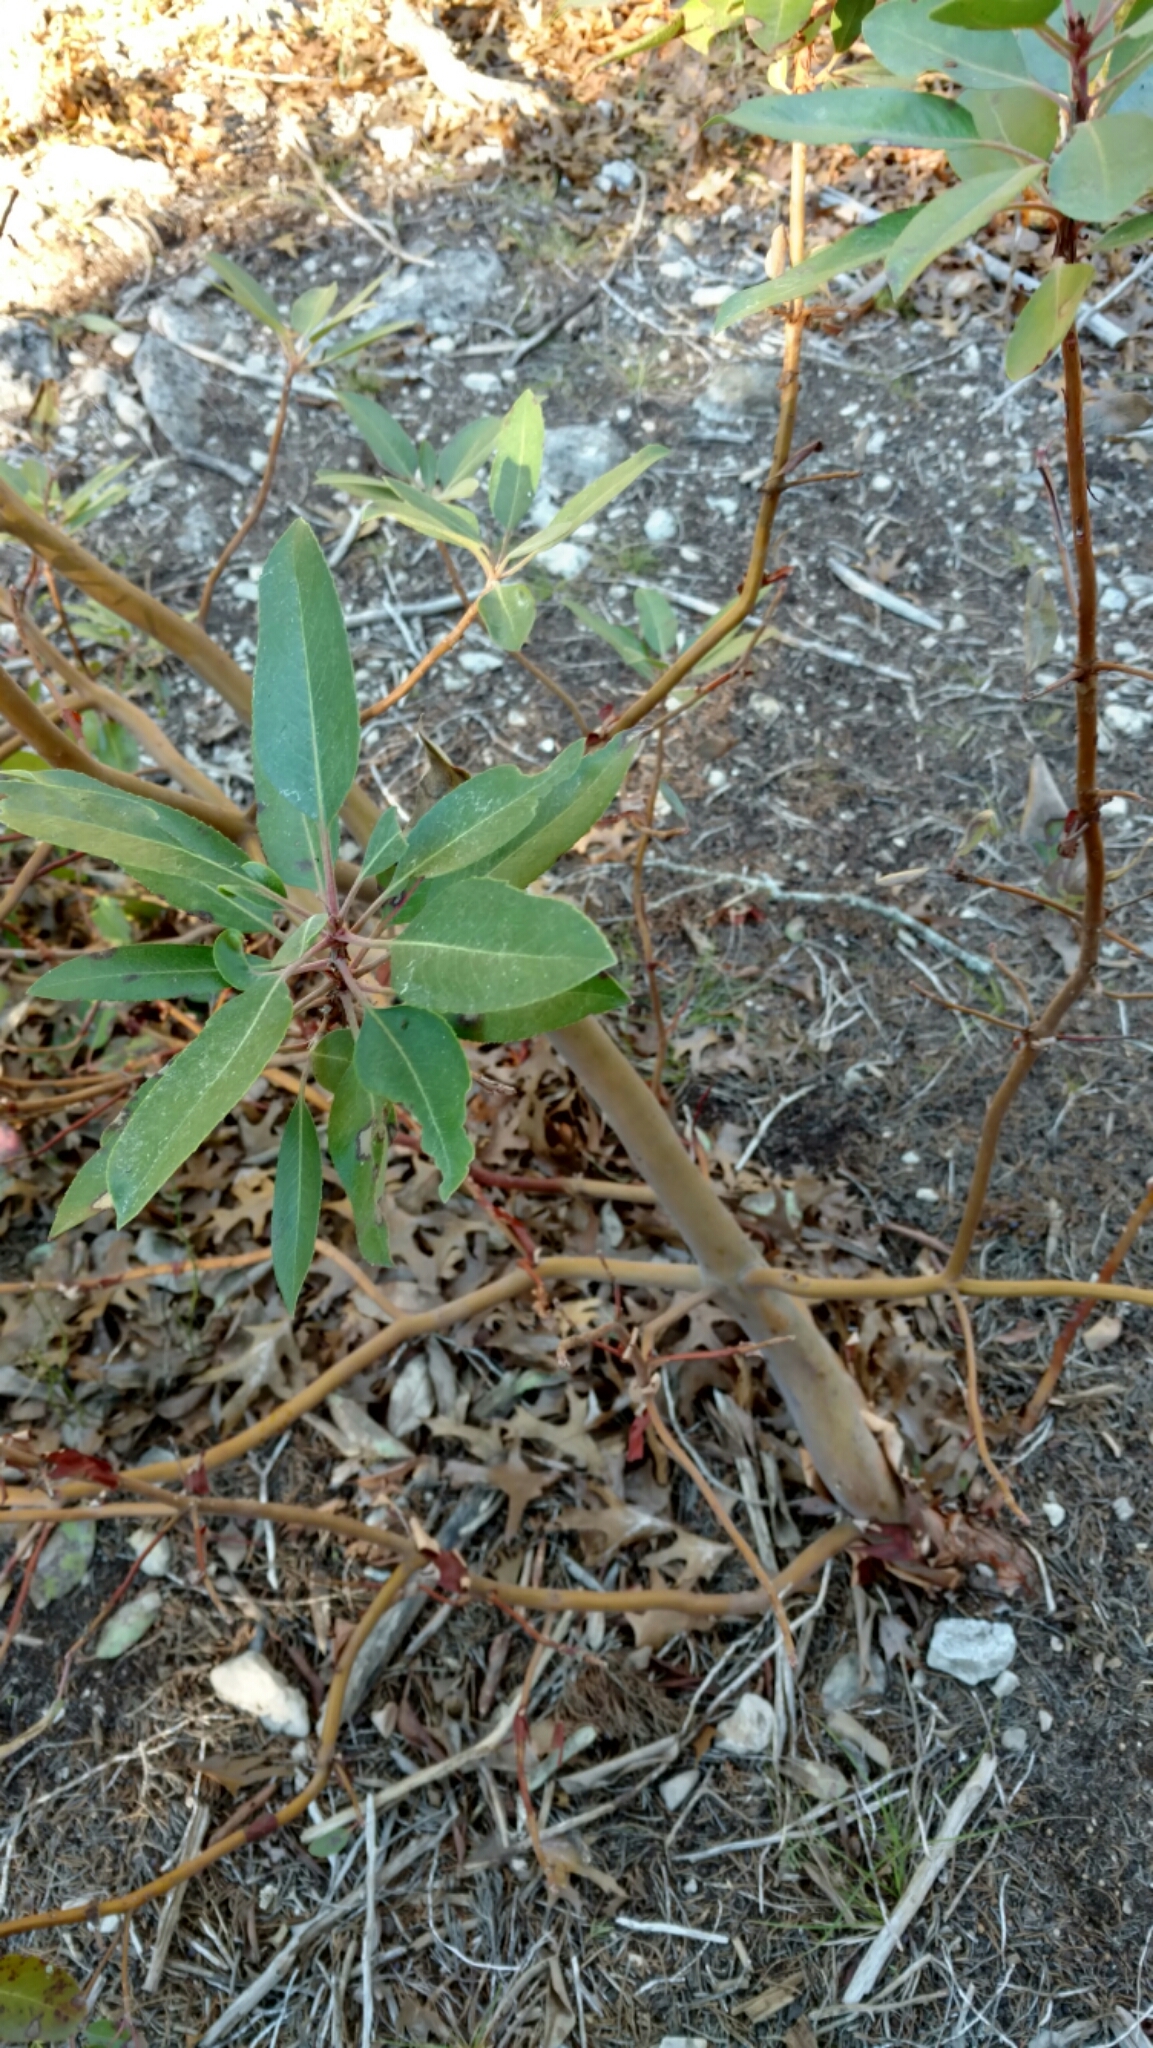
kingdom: Plantae
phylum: Tracheophyta
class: Magnoliopsida
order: Ericales
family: Ericaceae
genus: Arbutus
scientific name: Arbutus xalapensis
